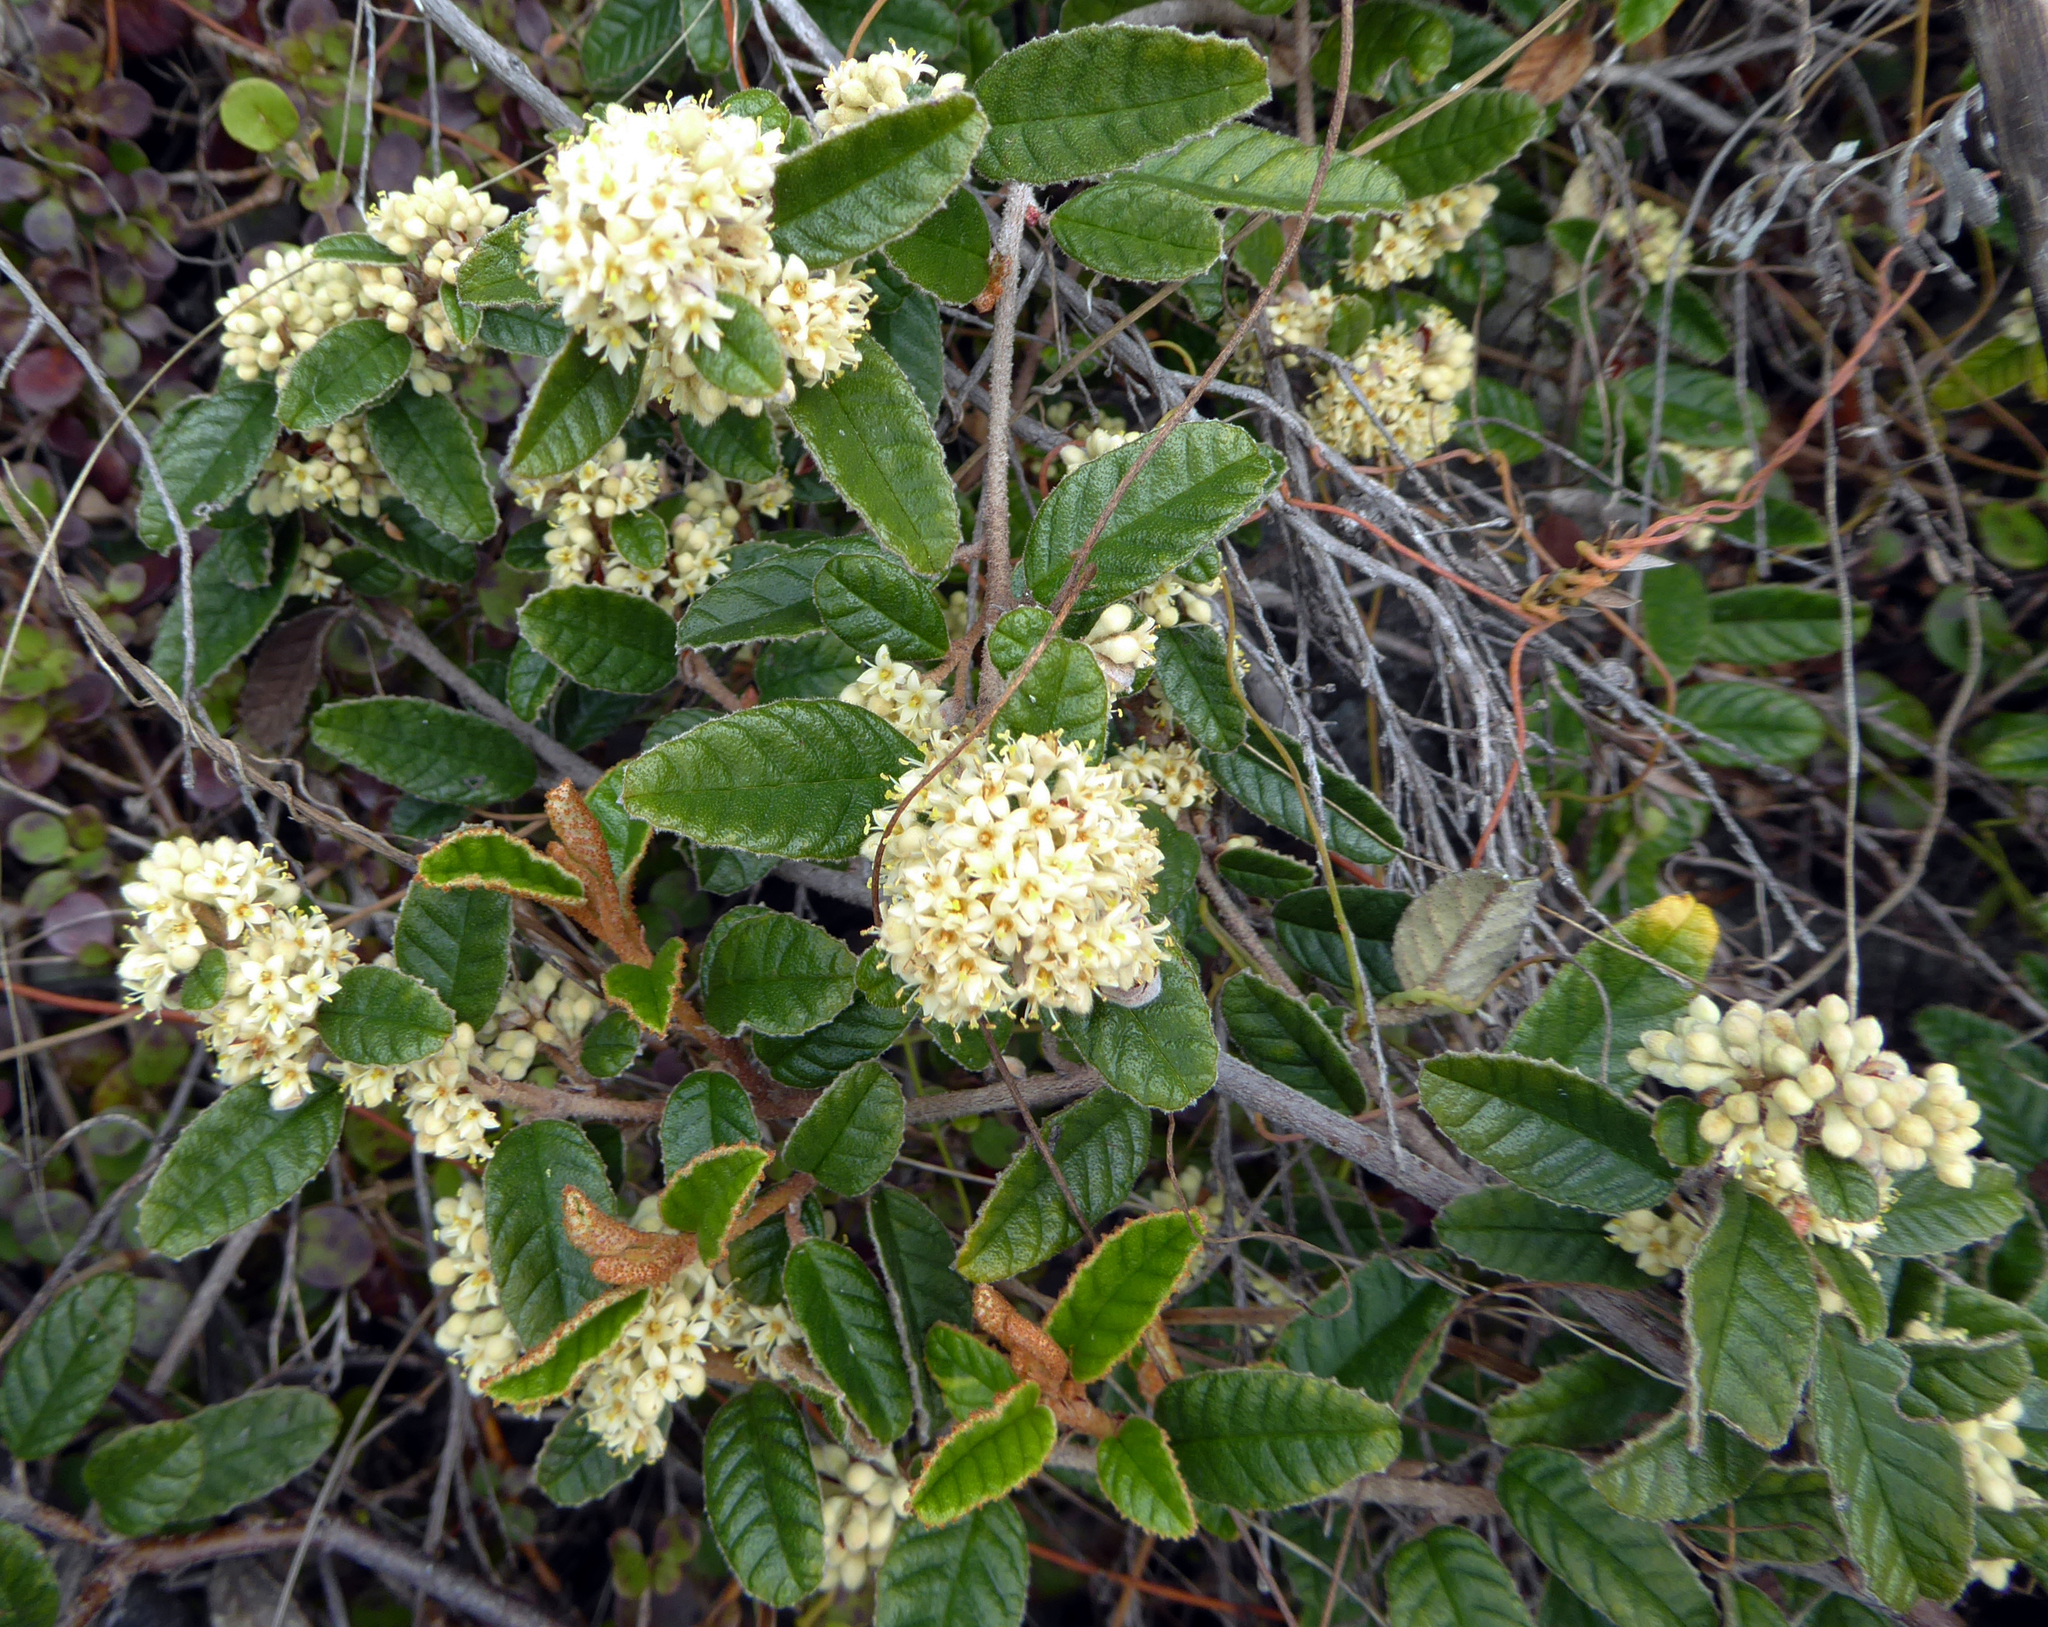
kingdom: Plantae
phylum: Tracheophyta
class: Magnoliopsida
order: Rosales
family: Rhamnaceae
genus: Pomaderris
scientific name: Pomaderris edgerleyi
